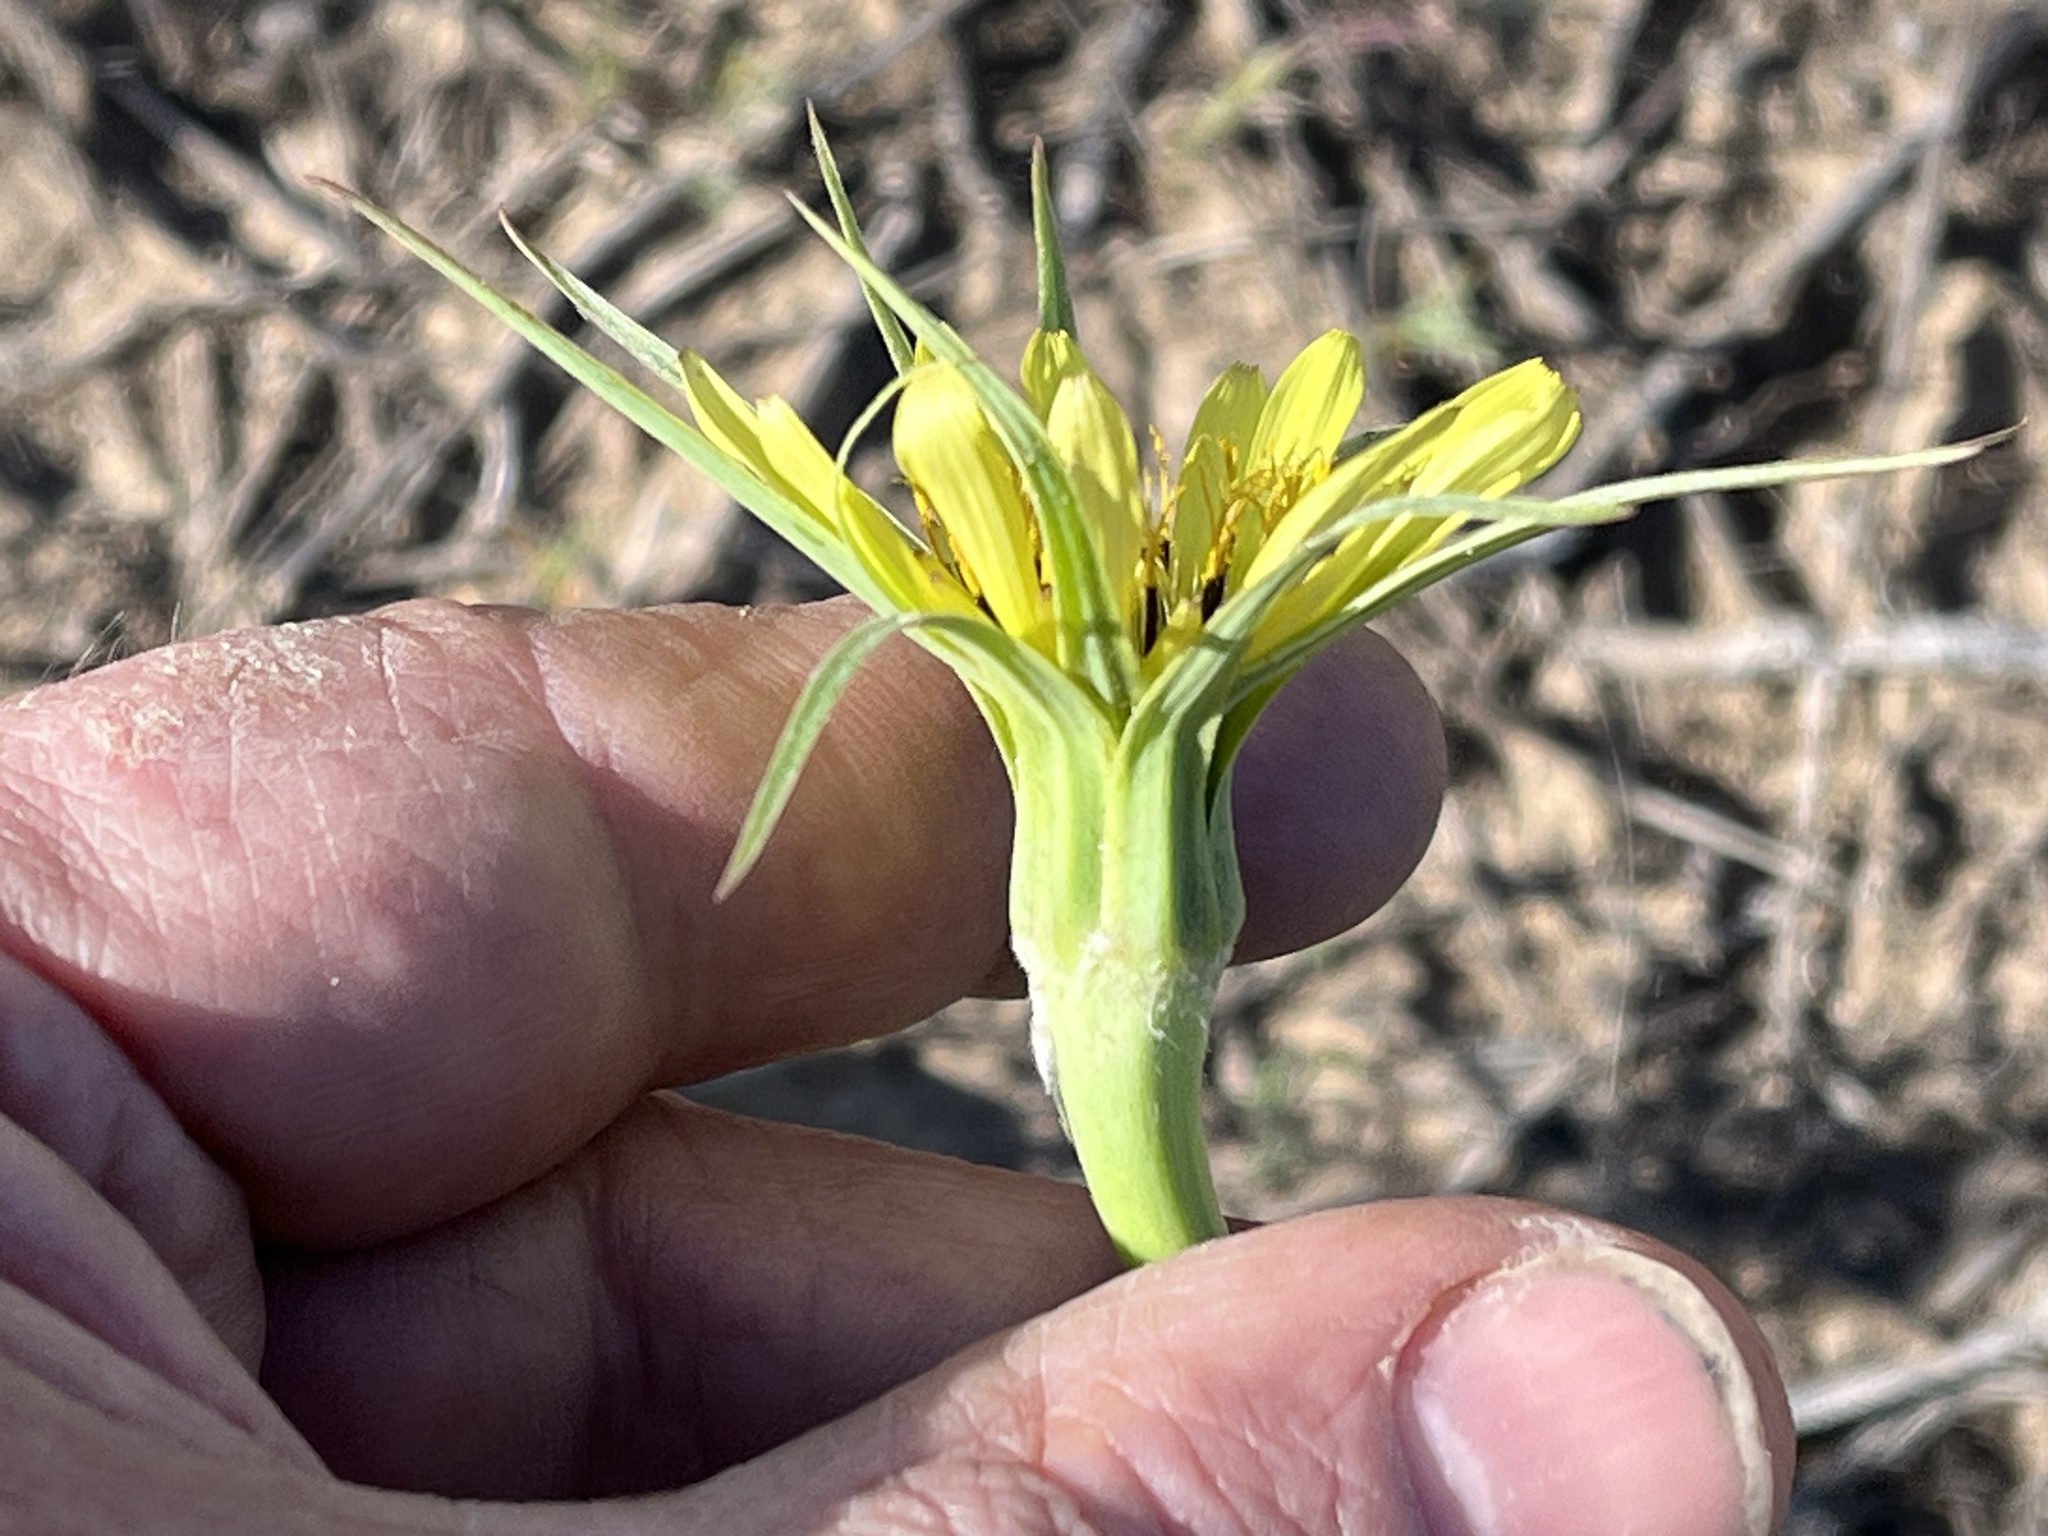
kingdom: Plantae
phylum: Tracheophyta
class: Magnoliopsida
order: Asterales
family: Asteraceae
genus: Tragopogon
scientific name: Tragopogon dubius
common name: Yellow salsify
